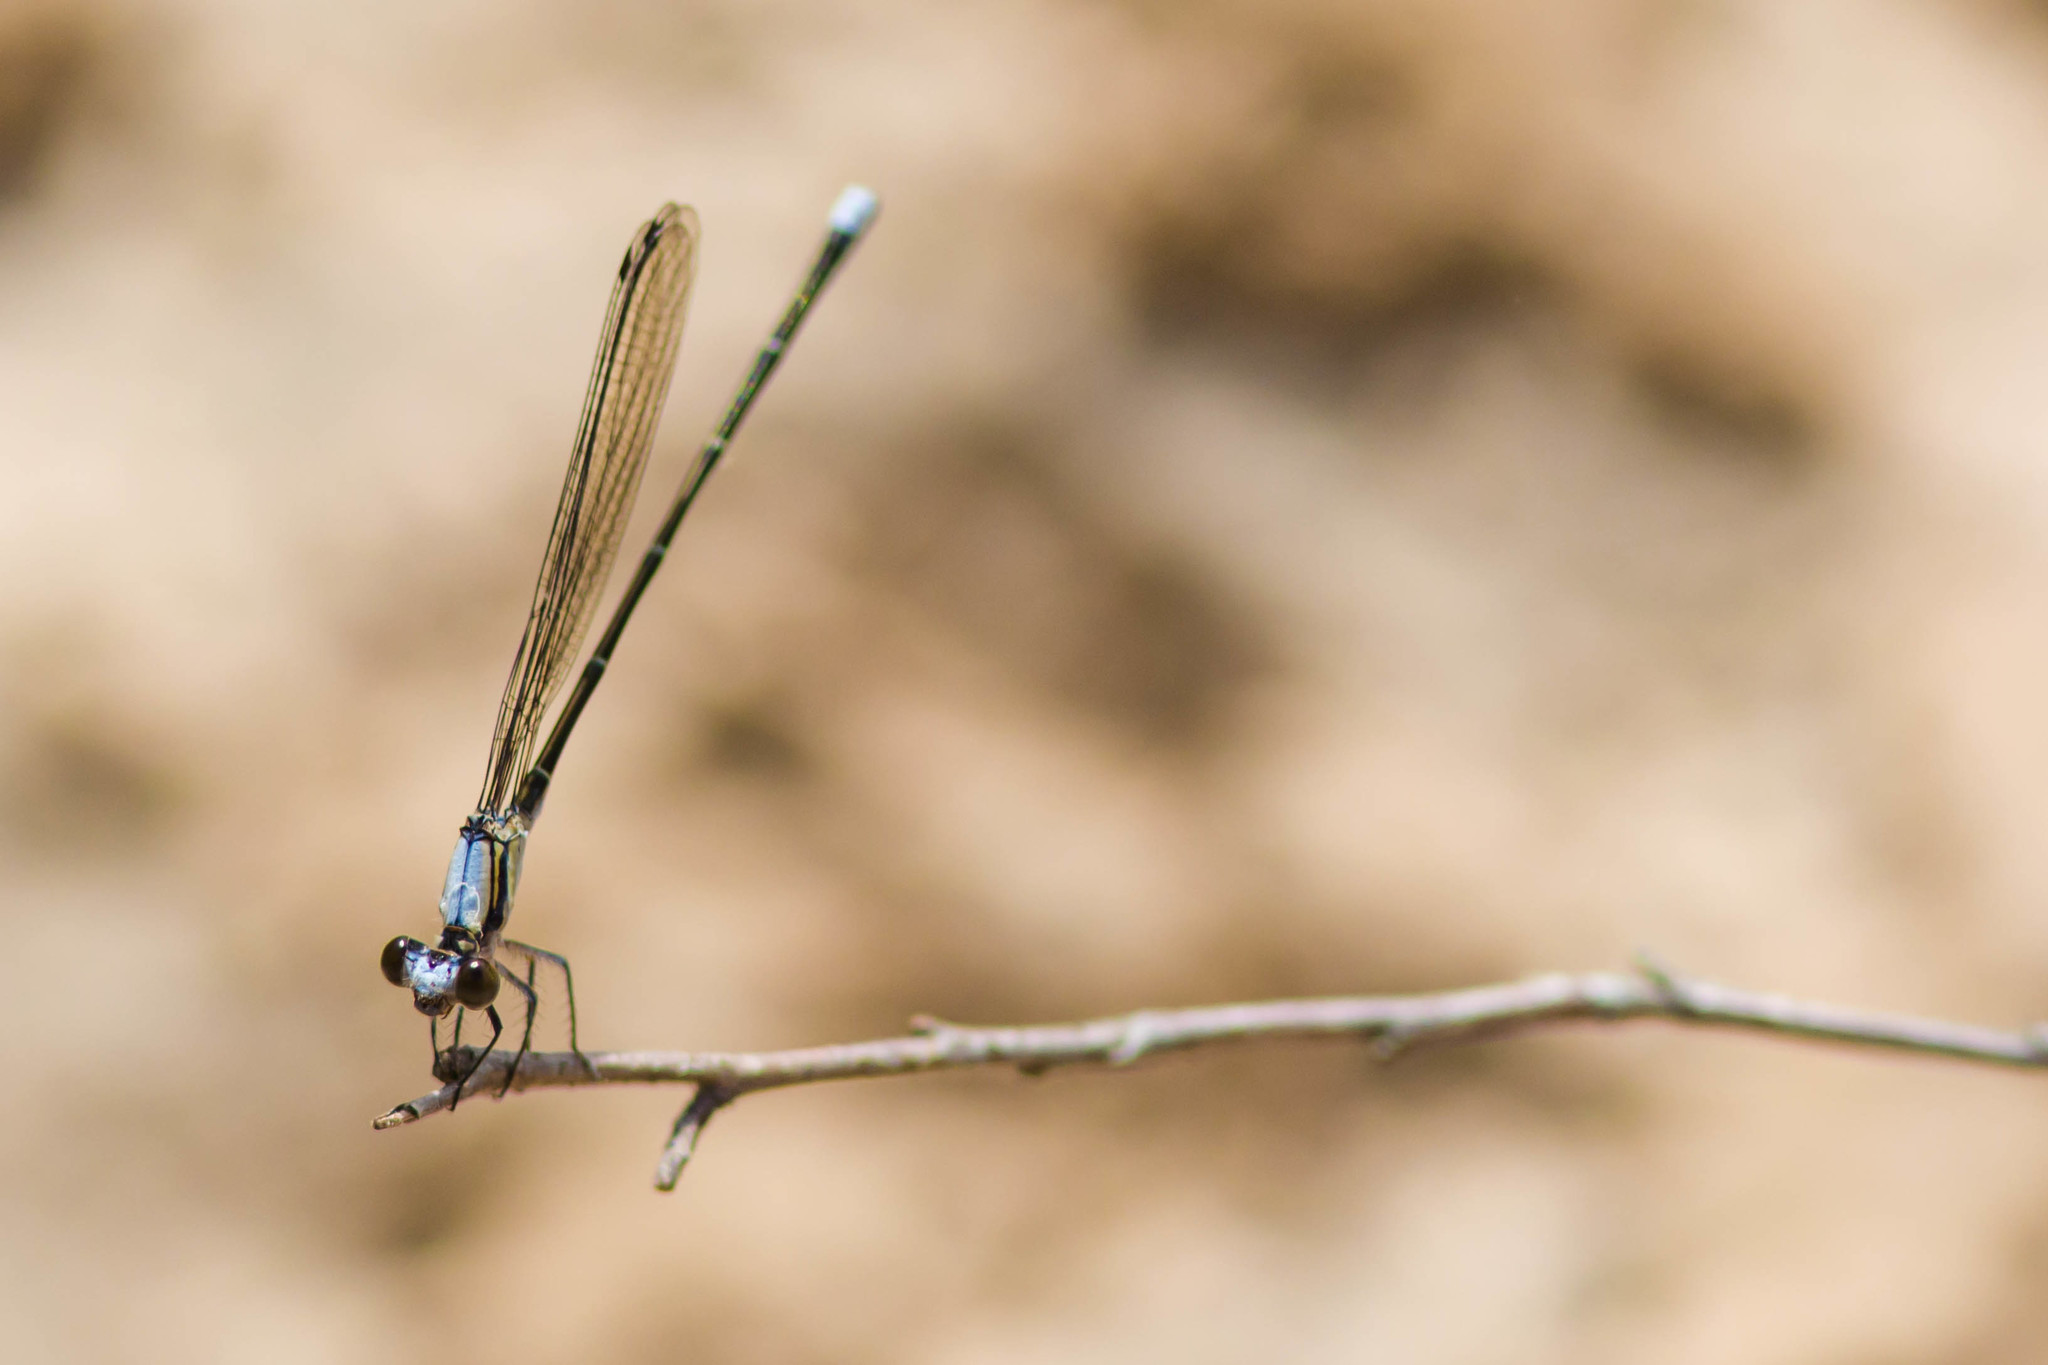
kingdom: Animalia
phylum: Arthropoda
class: Insecta
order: Odonata
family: Coenagrionidae
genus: Argia
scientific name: Argia moesta
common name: Powdered dancer
